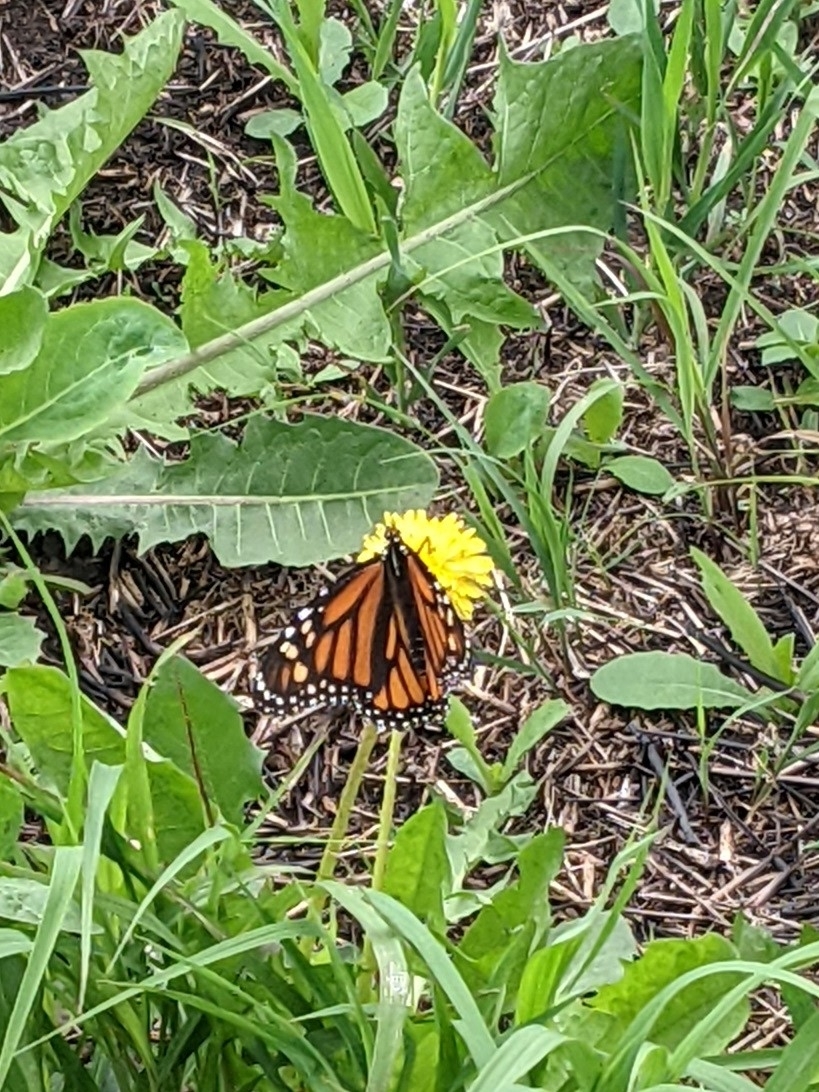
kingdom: Animalia
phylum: Arthropoda
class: Insecta
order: Lepidoptera
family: Nymphalidae
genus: Danaus
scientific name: Danaus plexippus
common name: Monarch
